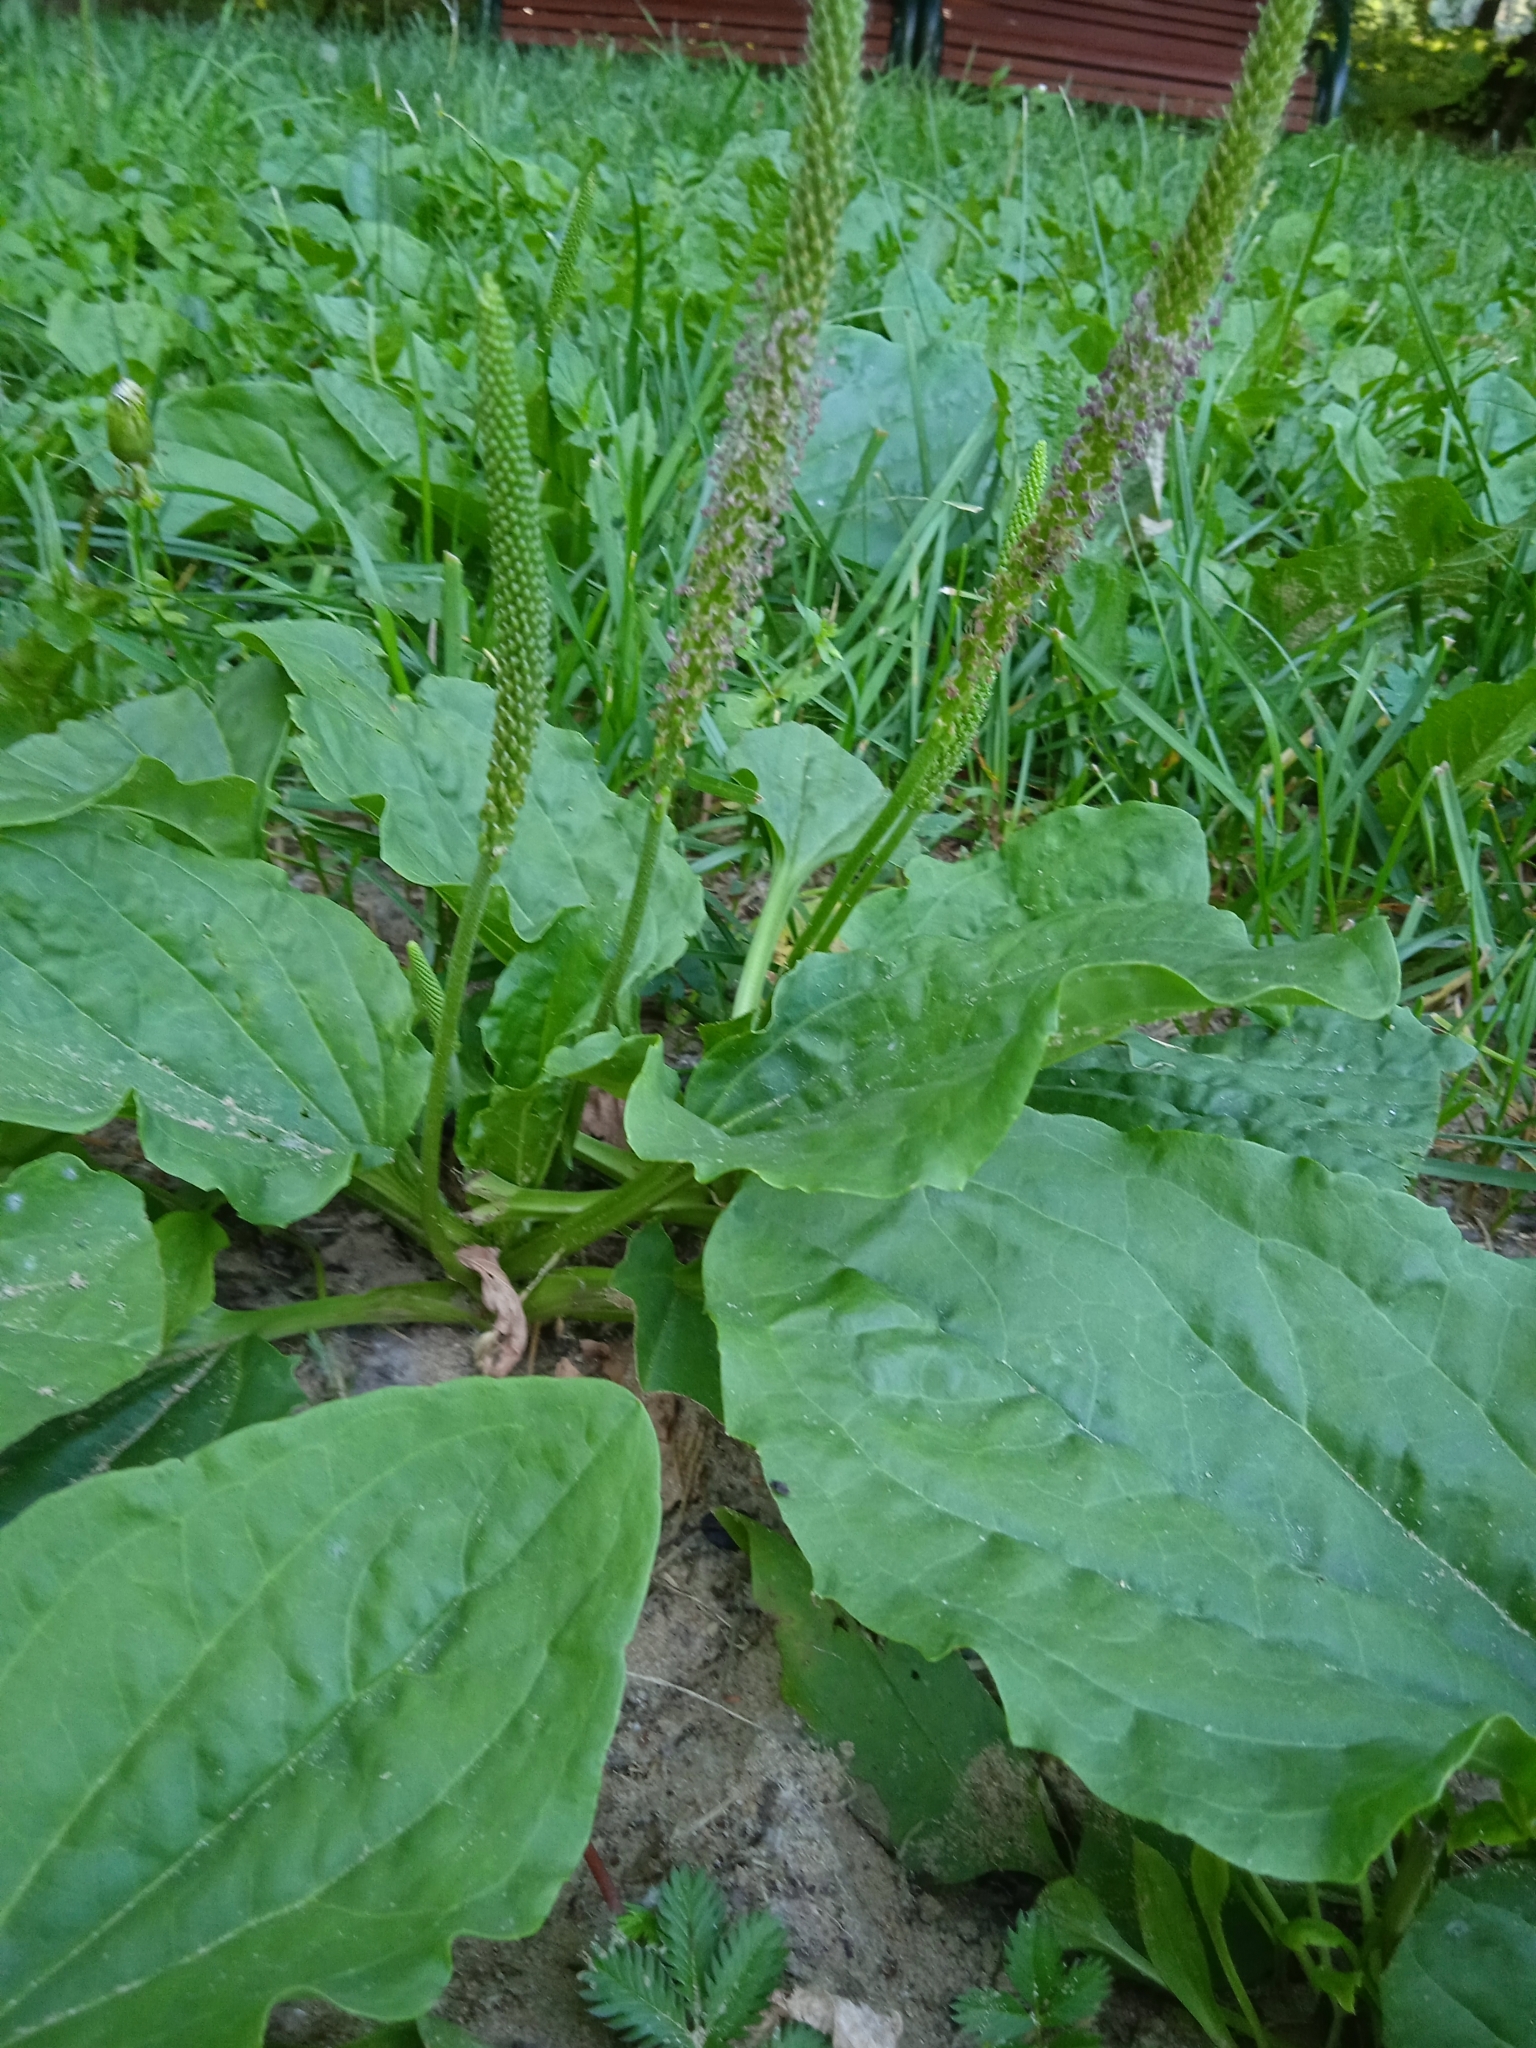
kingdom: Plantae
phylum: Tracheophyta
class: Magnoliopsida
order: Lamiales
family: Plantaginaceae
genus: Plantago
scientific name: Plantago major
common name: Common plantain
